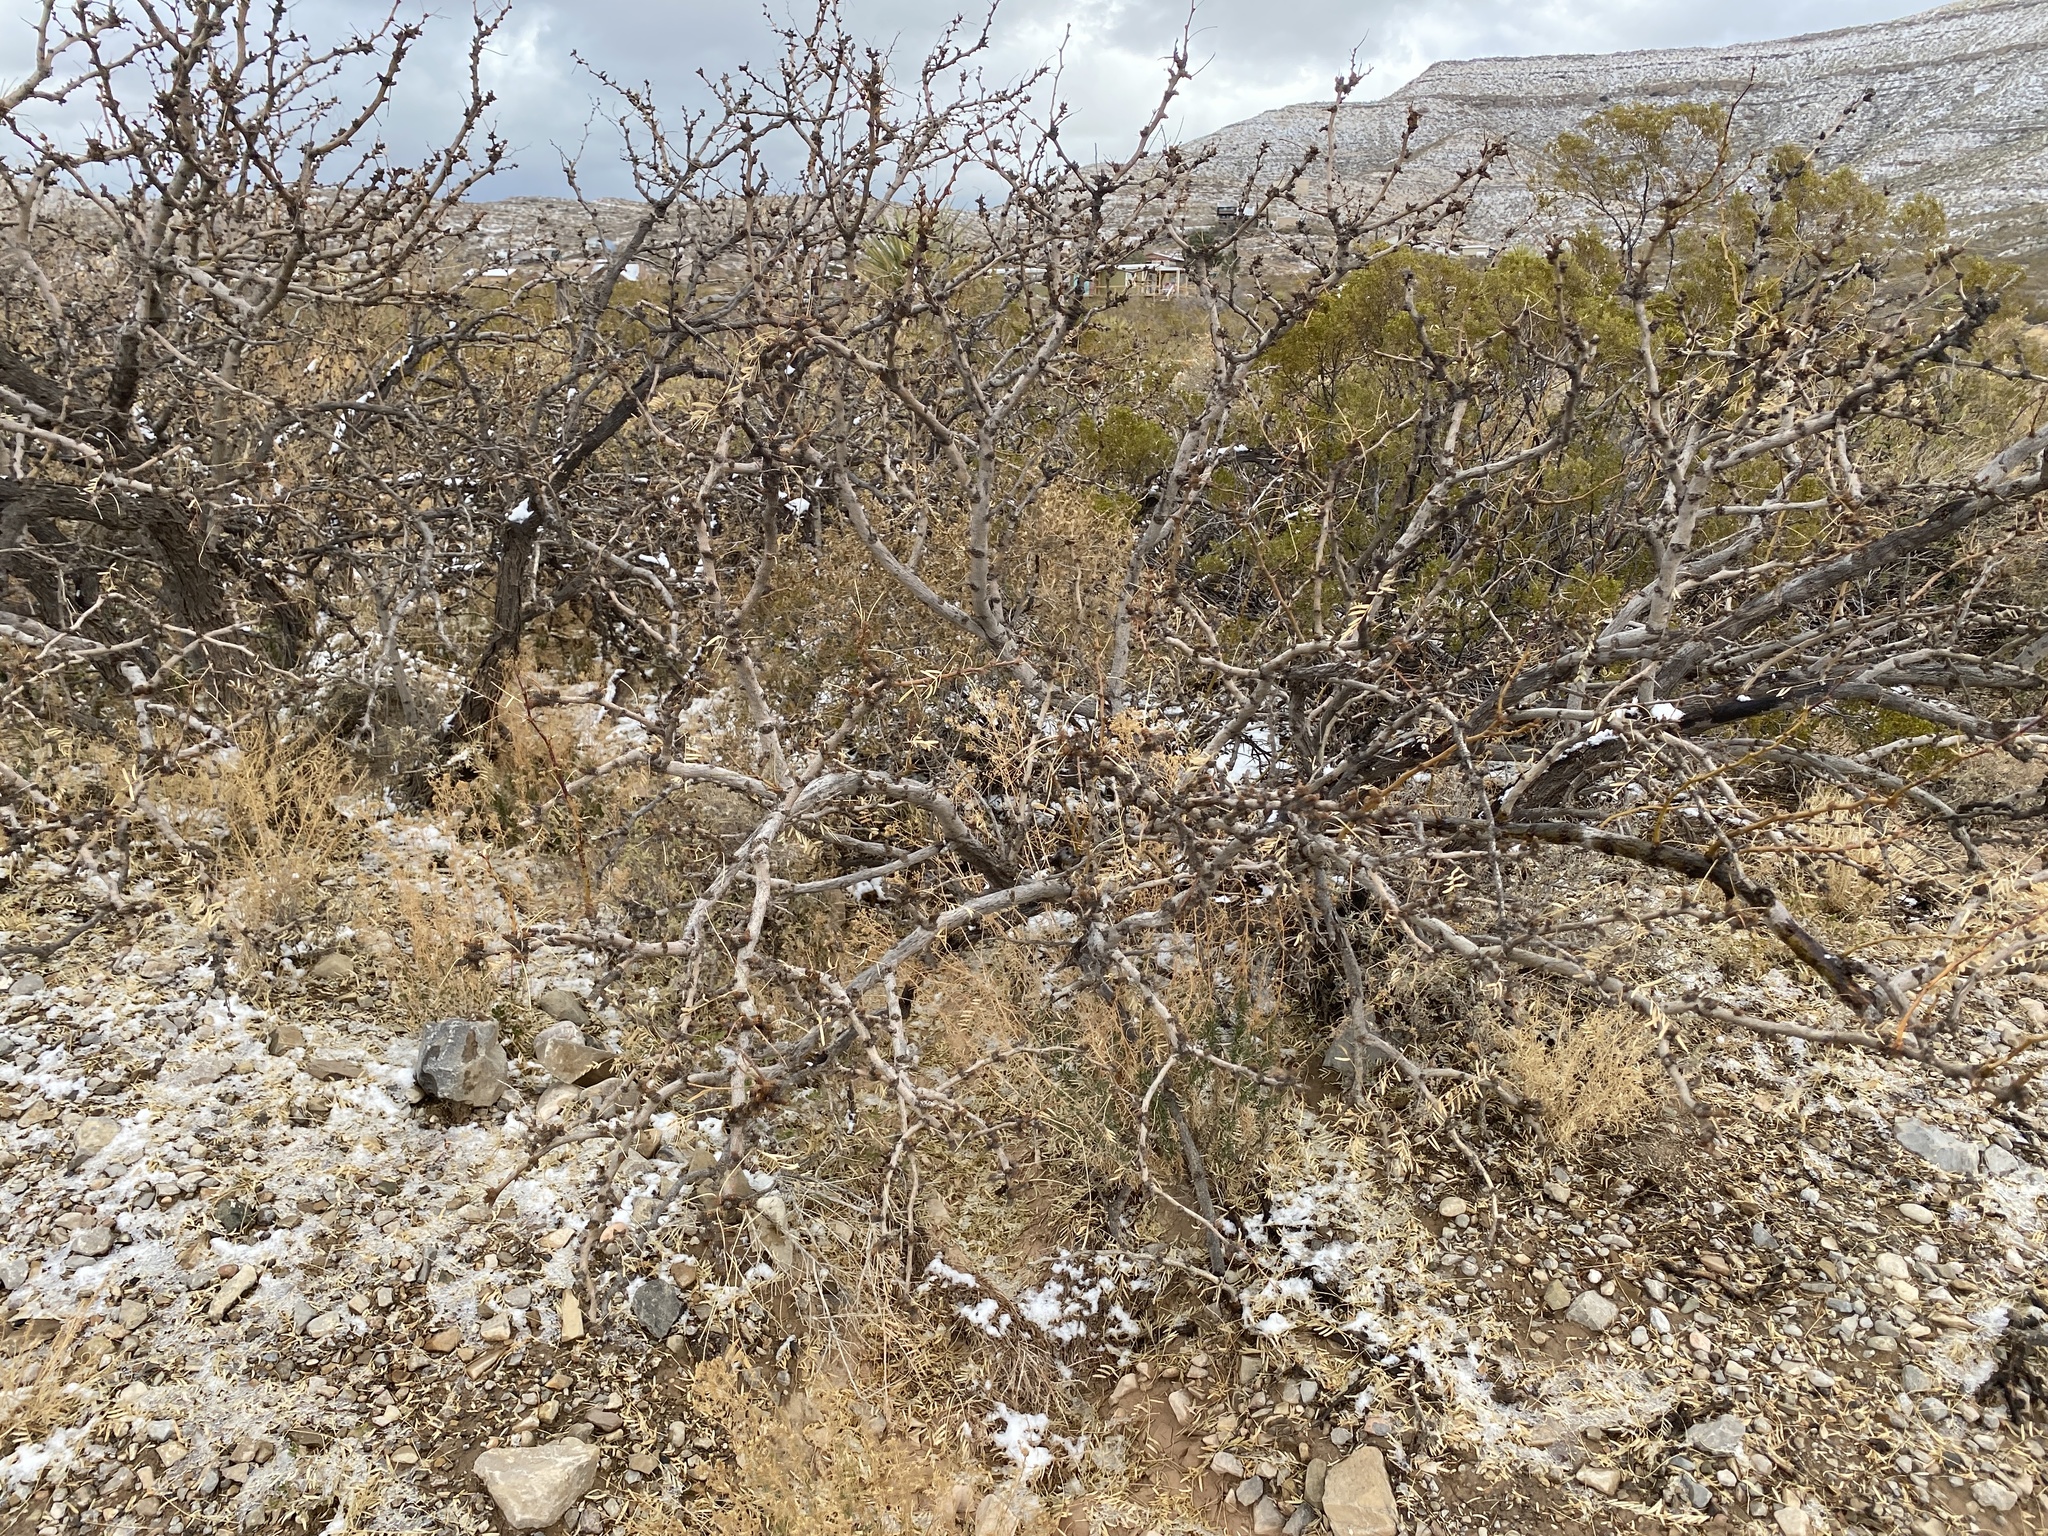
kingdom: Plantae
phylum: Tracheophyta
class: Magnoliopsida
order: Fabales
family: Fabaceae
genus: Prosopis
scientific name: Prosopis glandulosa
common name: Honey mesquite
